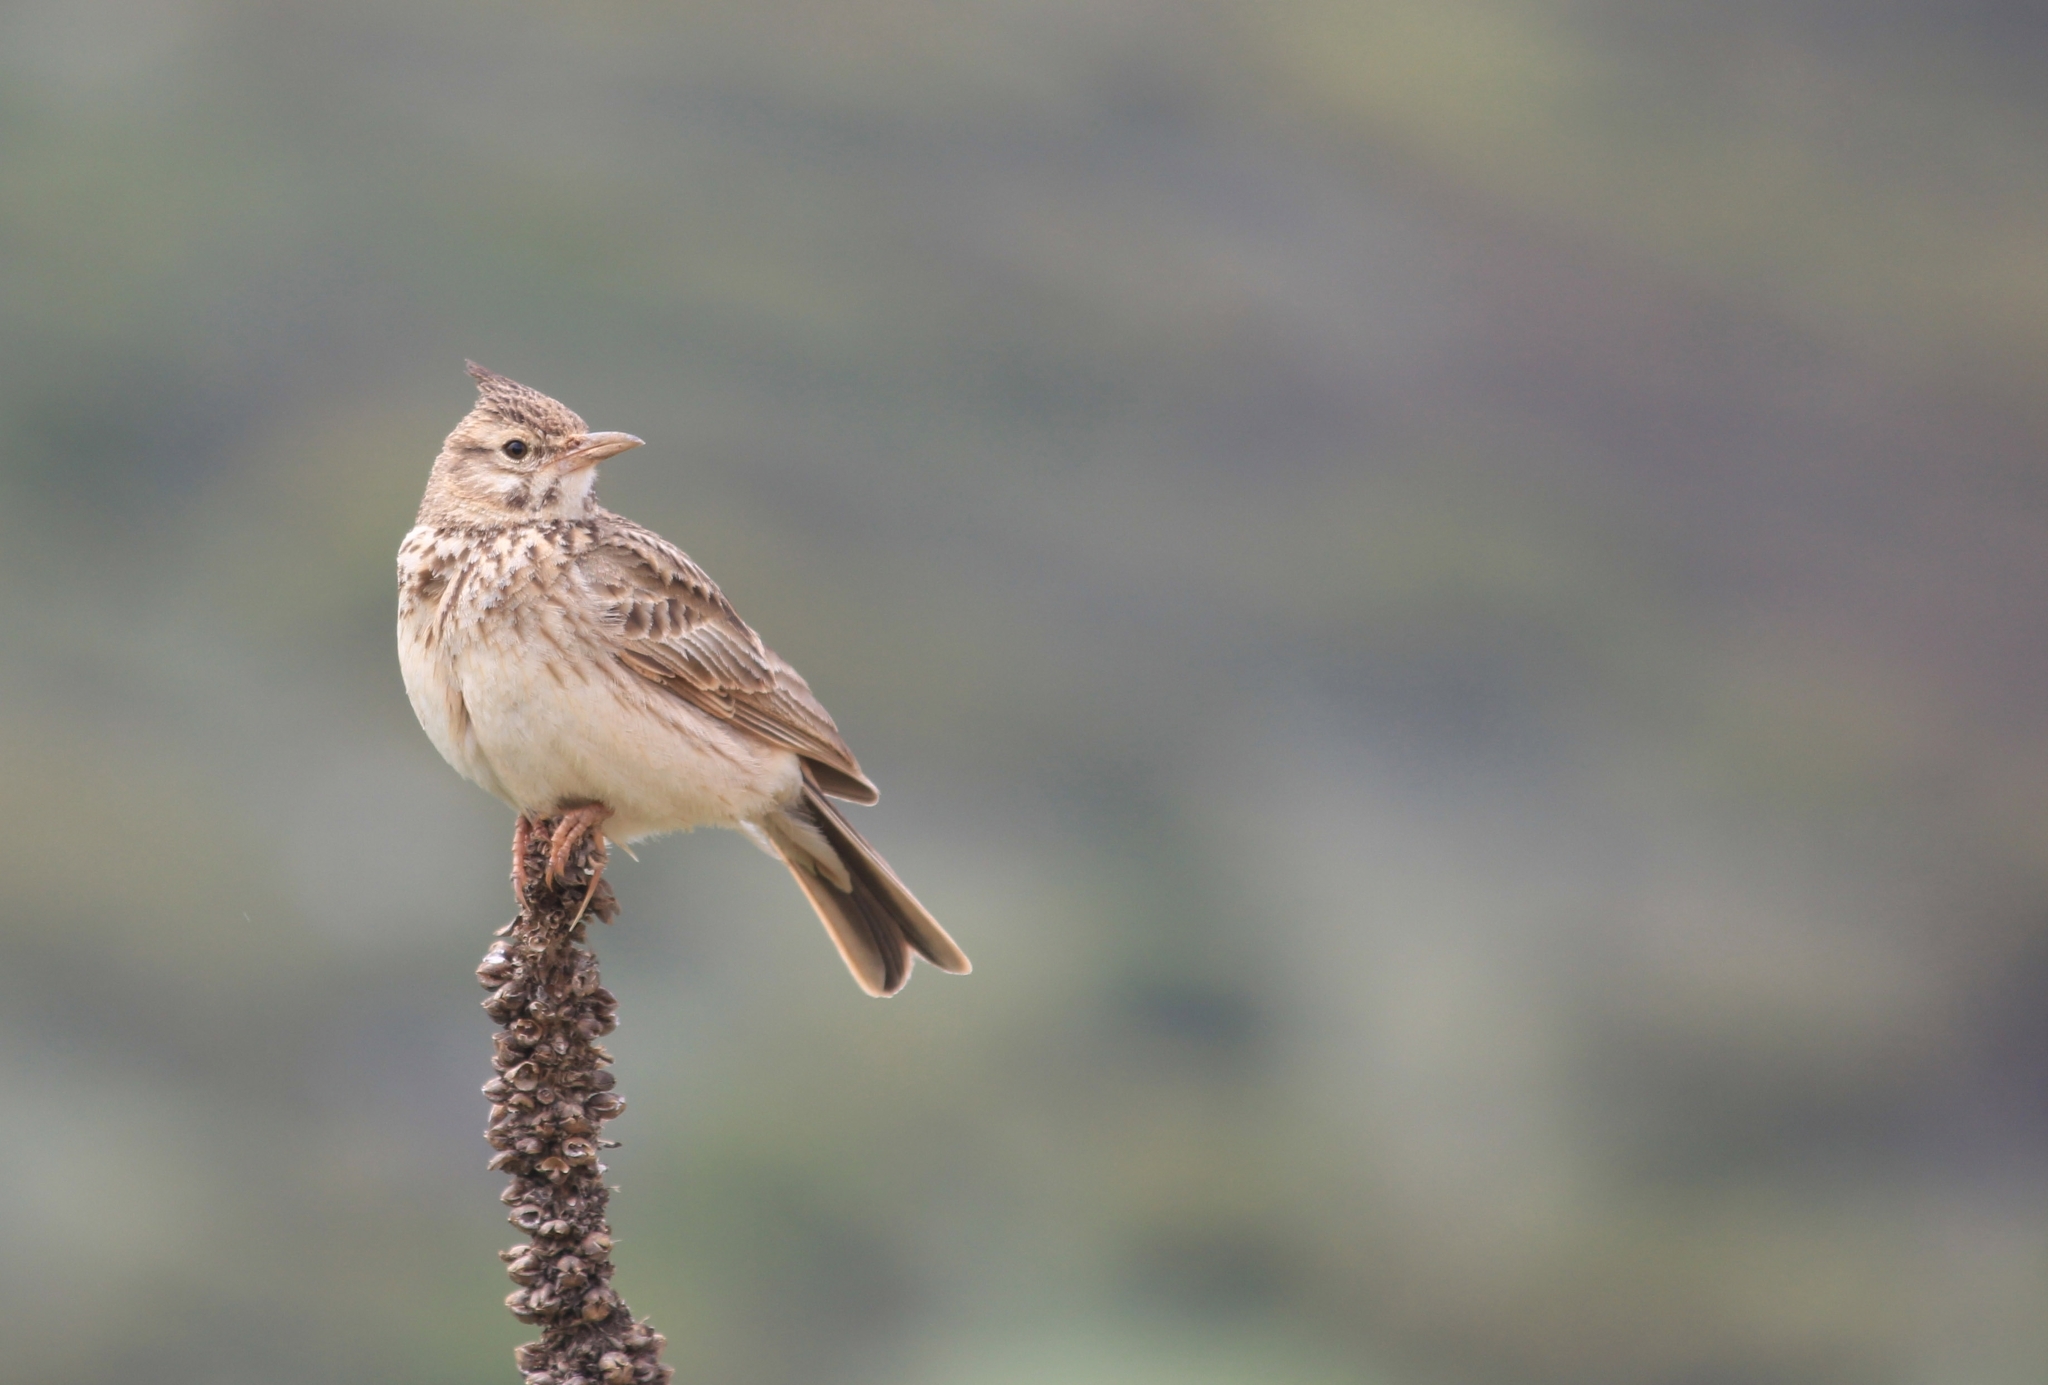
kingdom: Animalia
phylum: Chordata
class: Aves
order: Passeriformes
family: Alaudidae
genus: Galerida
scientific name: Galerida cristata
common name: Crested lark
